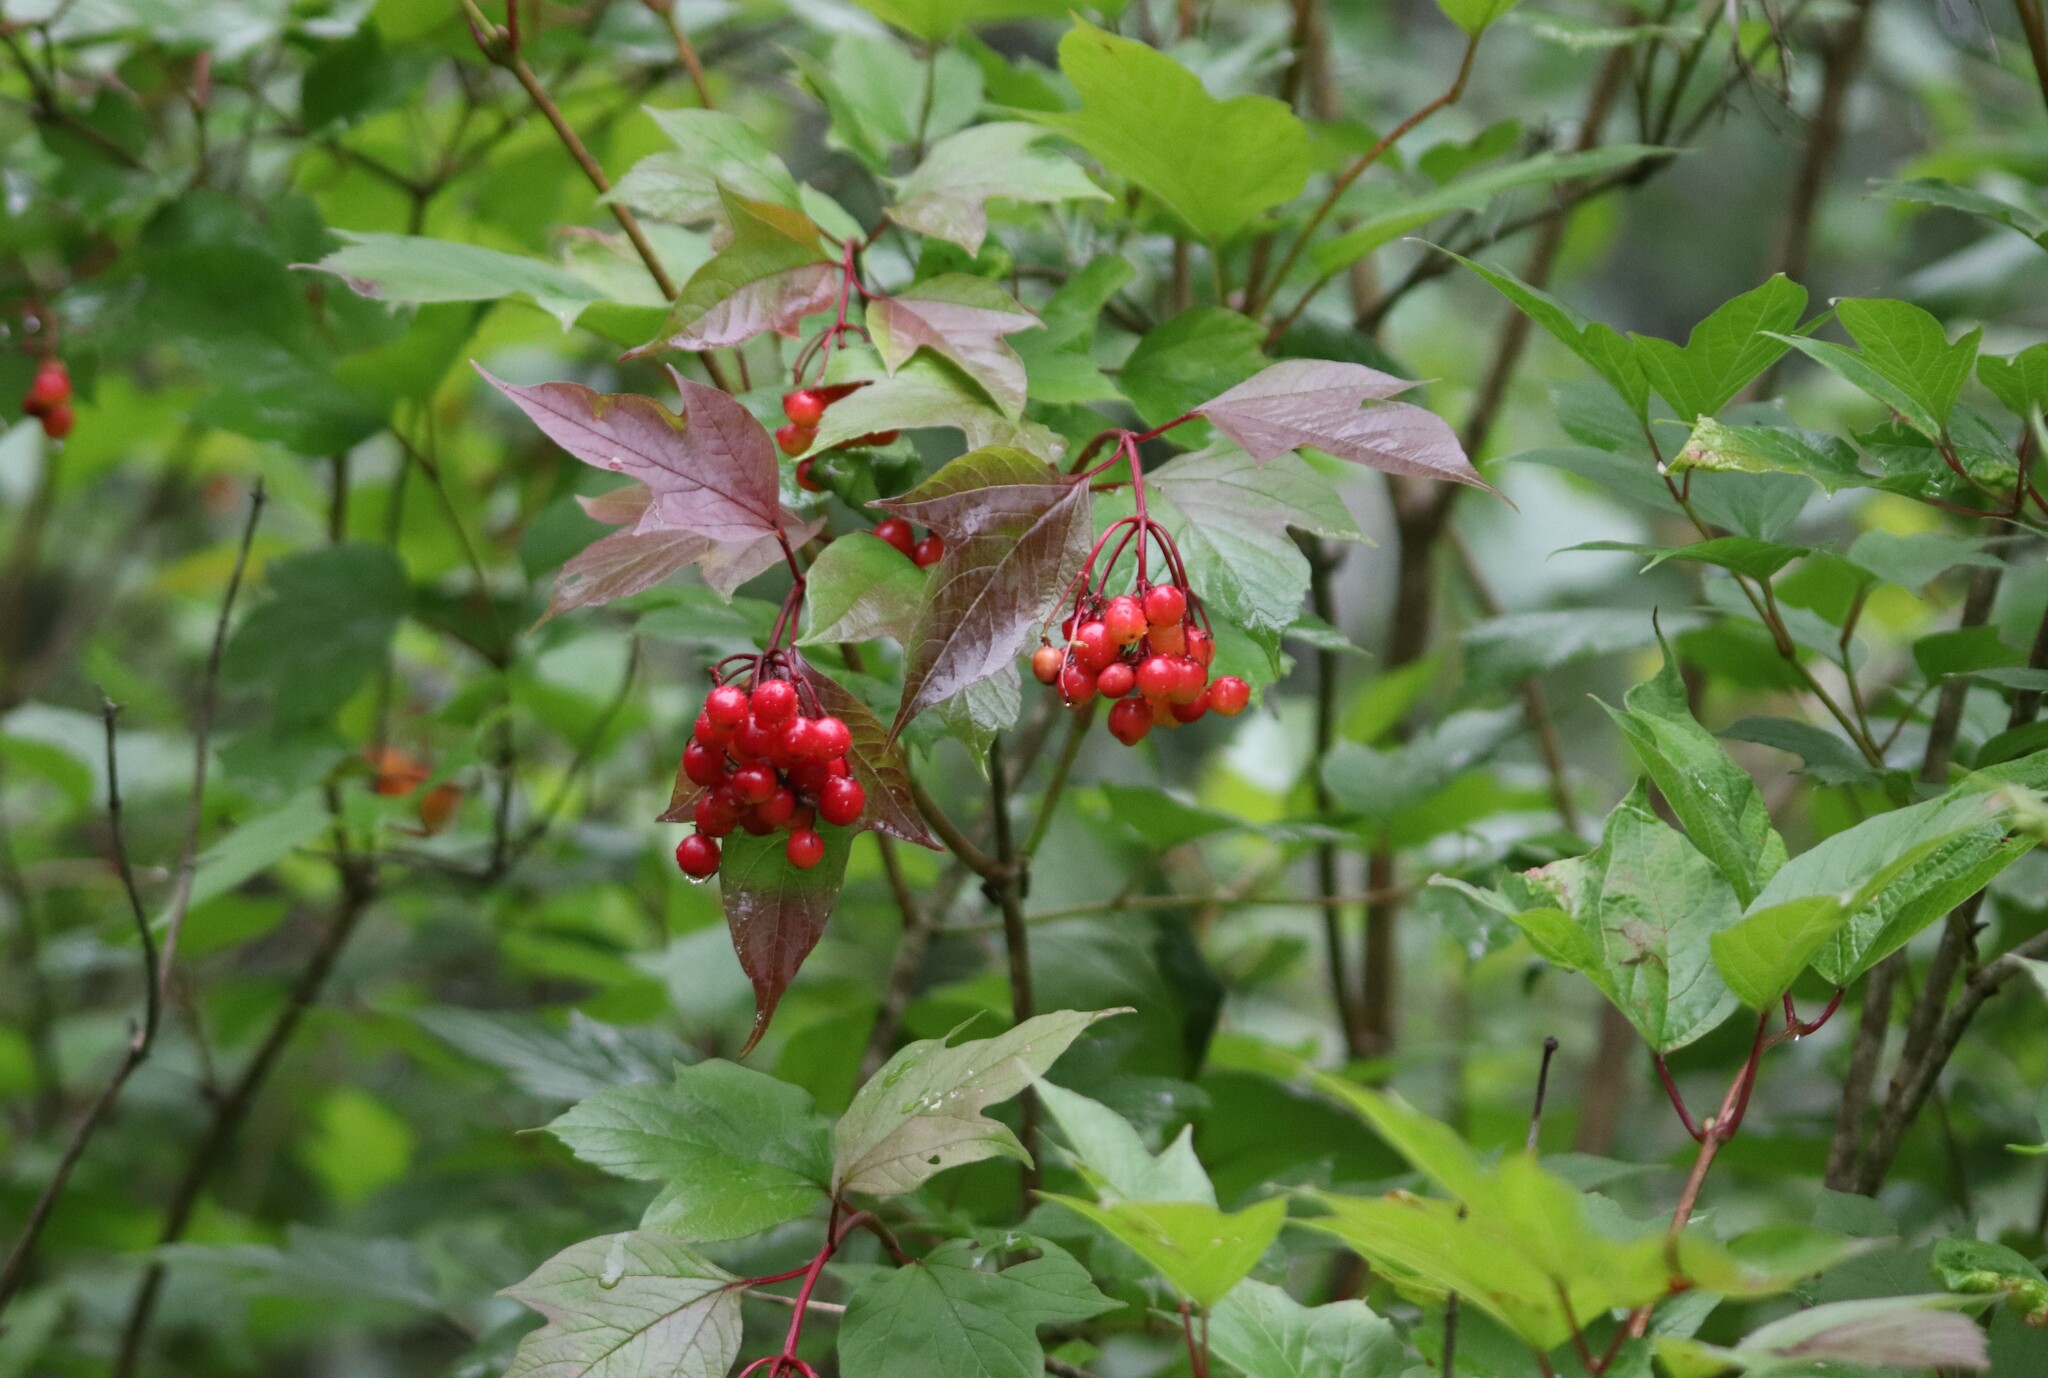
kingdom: Plantae
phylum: Tracheophyta
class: Magnoliopsida
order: Dipsacales
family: Viburnaceae
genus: Viburnum
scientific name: Viburnum opulus
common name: Guelder-rose
